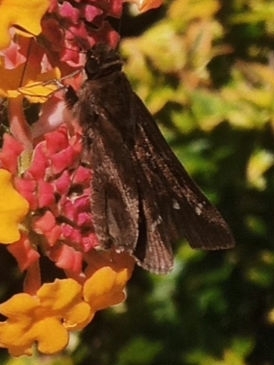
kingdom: Animalia
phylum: Arthropoda
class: Insecta
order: Lepidoptera
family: Hesperiidae
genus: Lerema
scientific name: Lerema accius
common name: Clouded skipper
